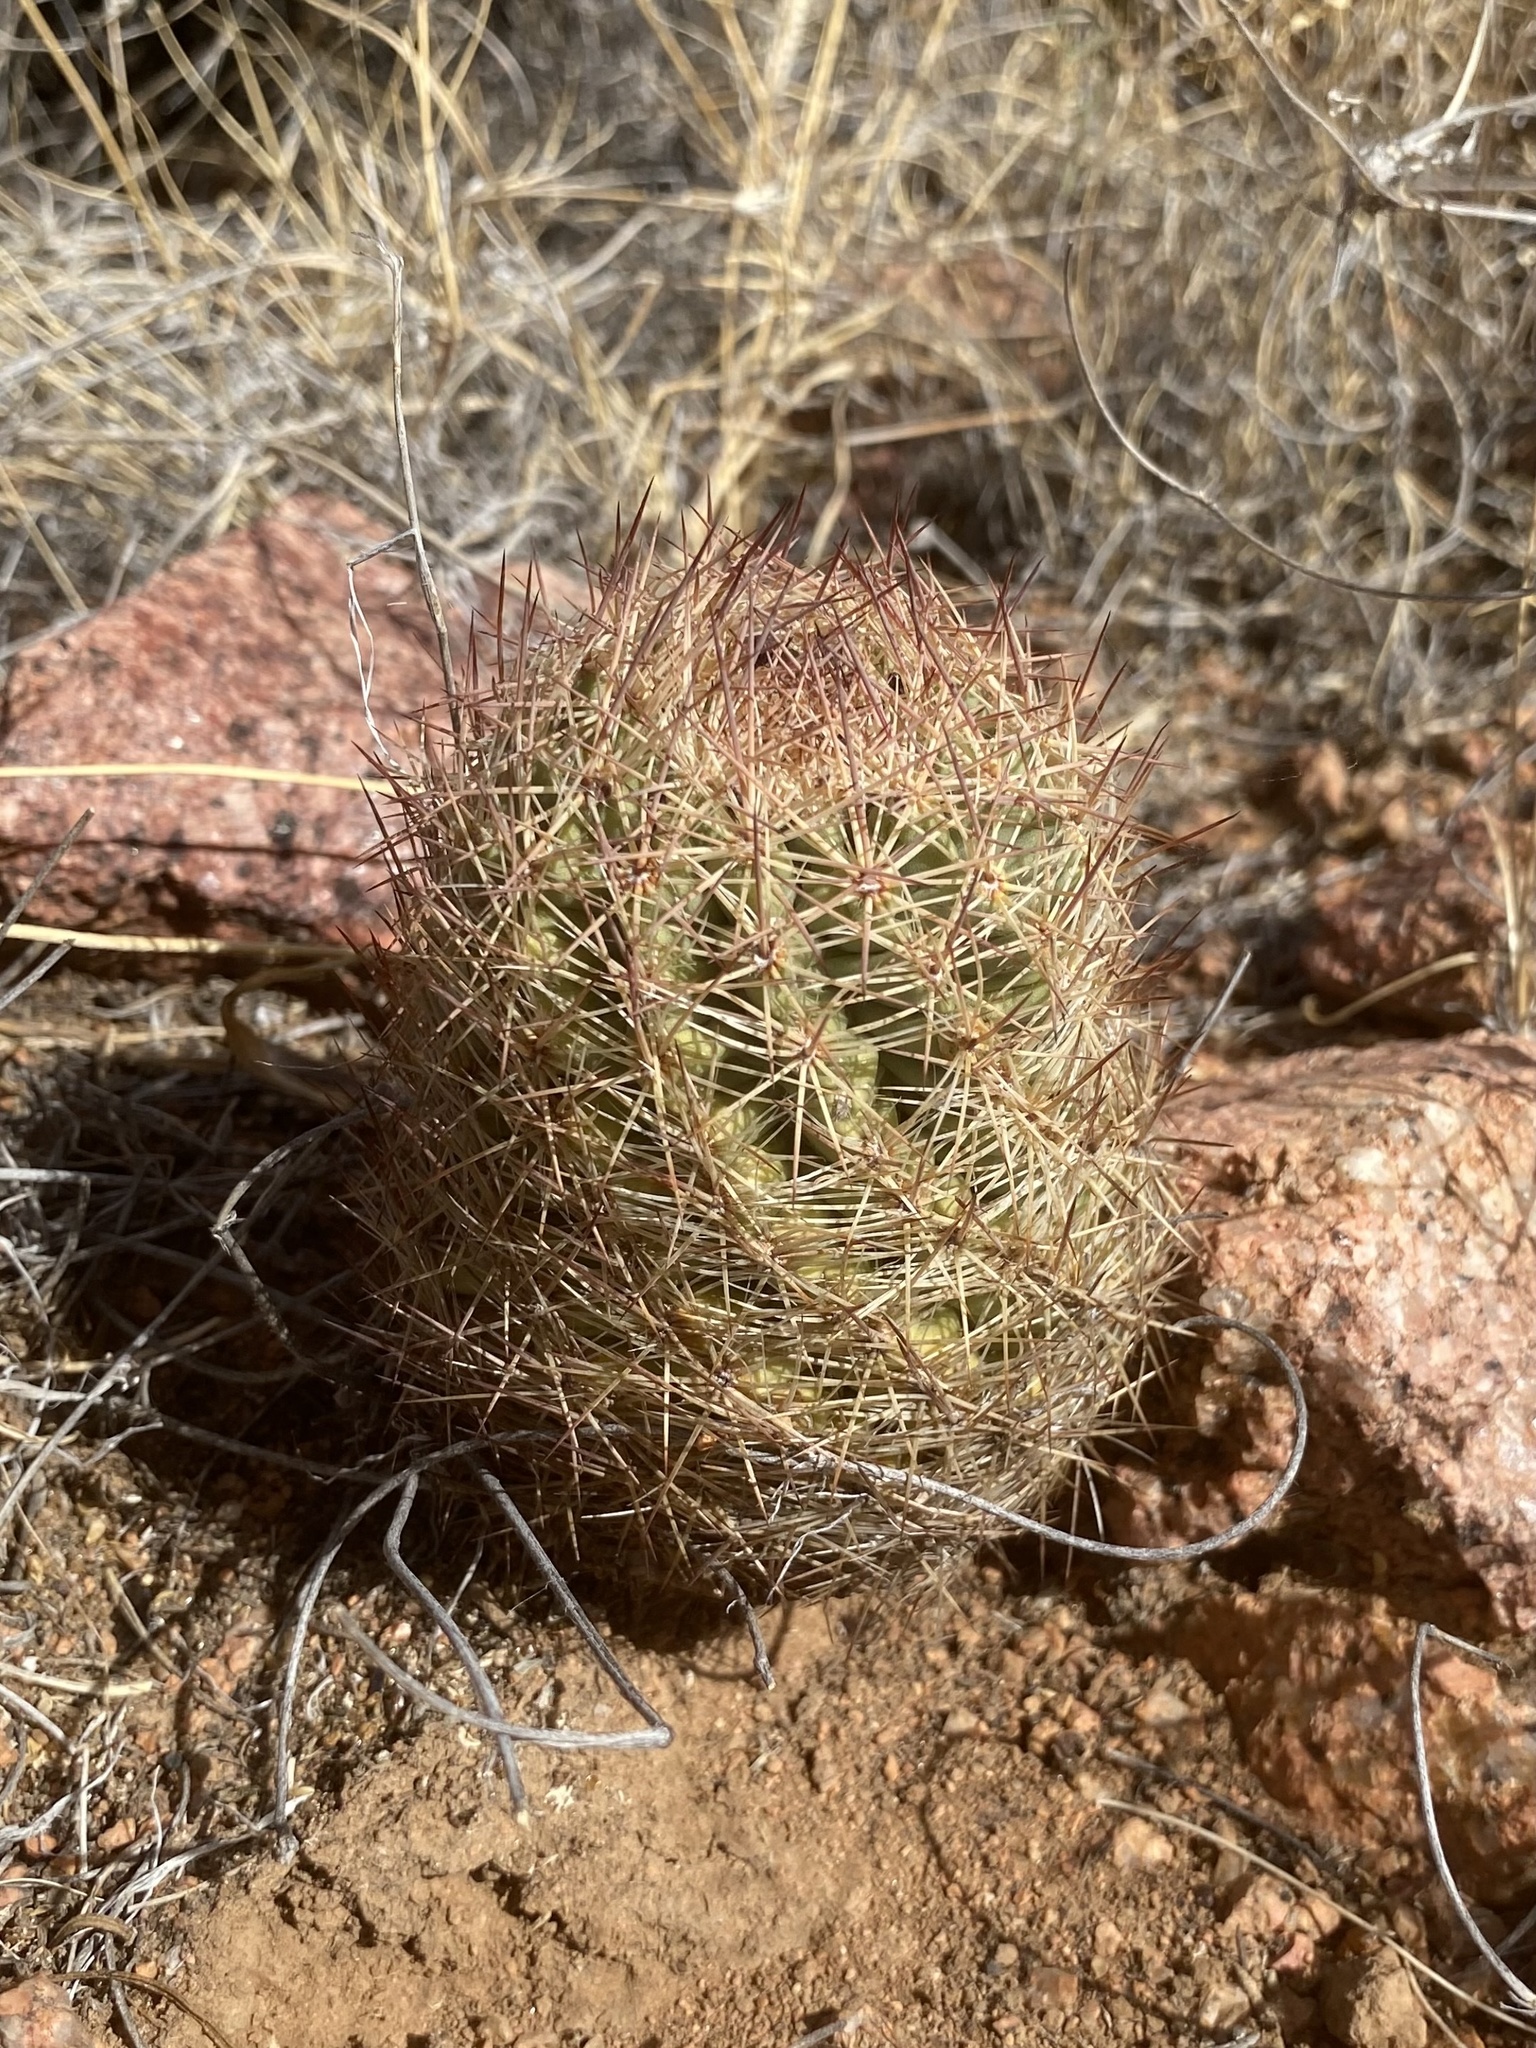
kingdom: Plantae
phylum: Tracheophyta
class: Magnoliopsida
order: Caryophyllales
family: Cactaceae
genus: Sclerocactus
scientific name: Sclerocactus intertextus
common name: White fish-hook cactus
